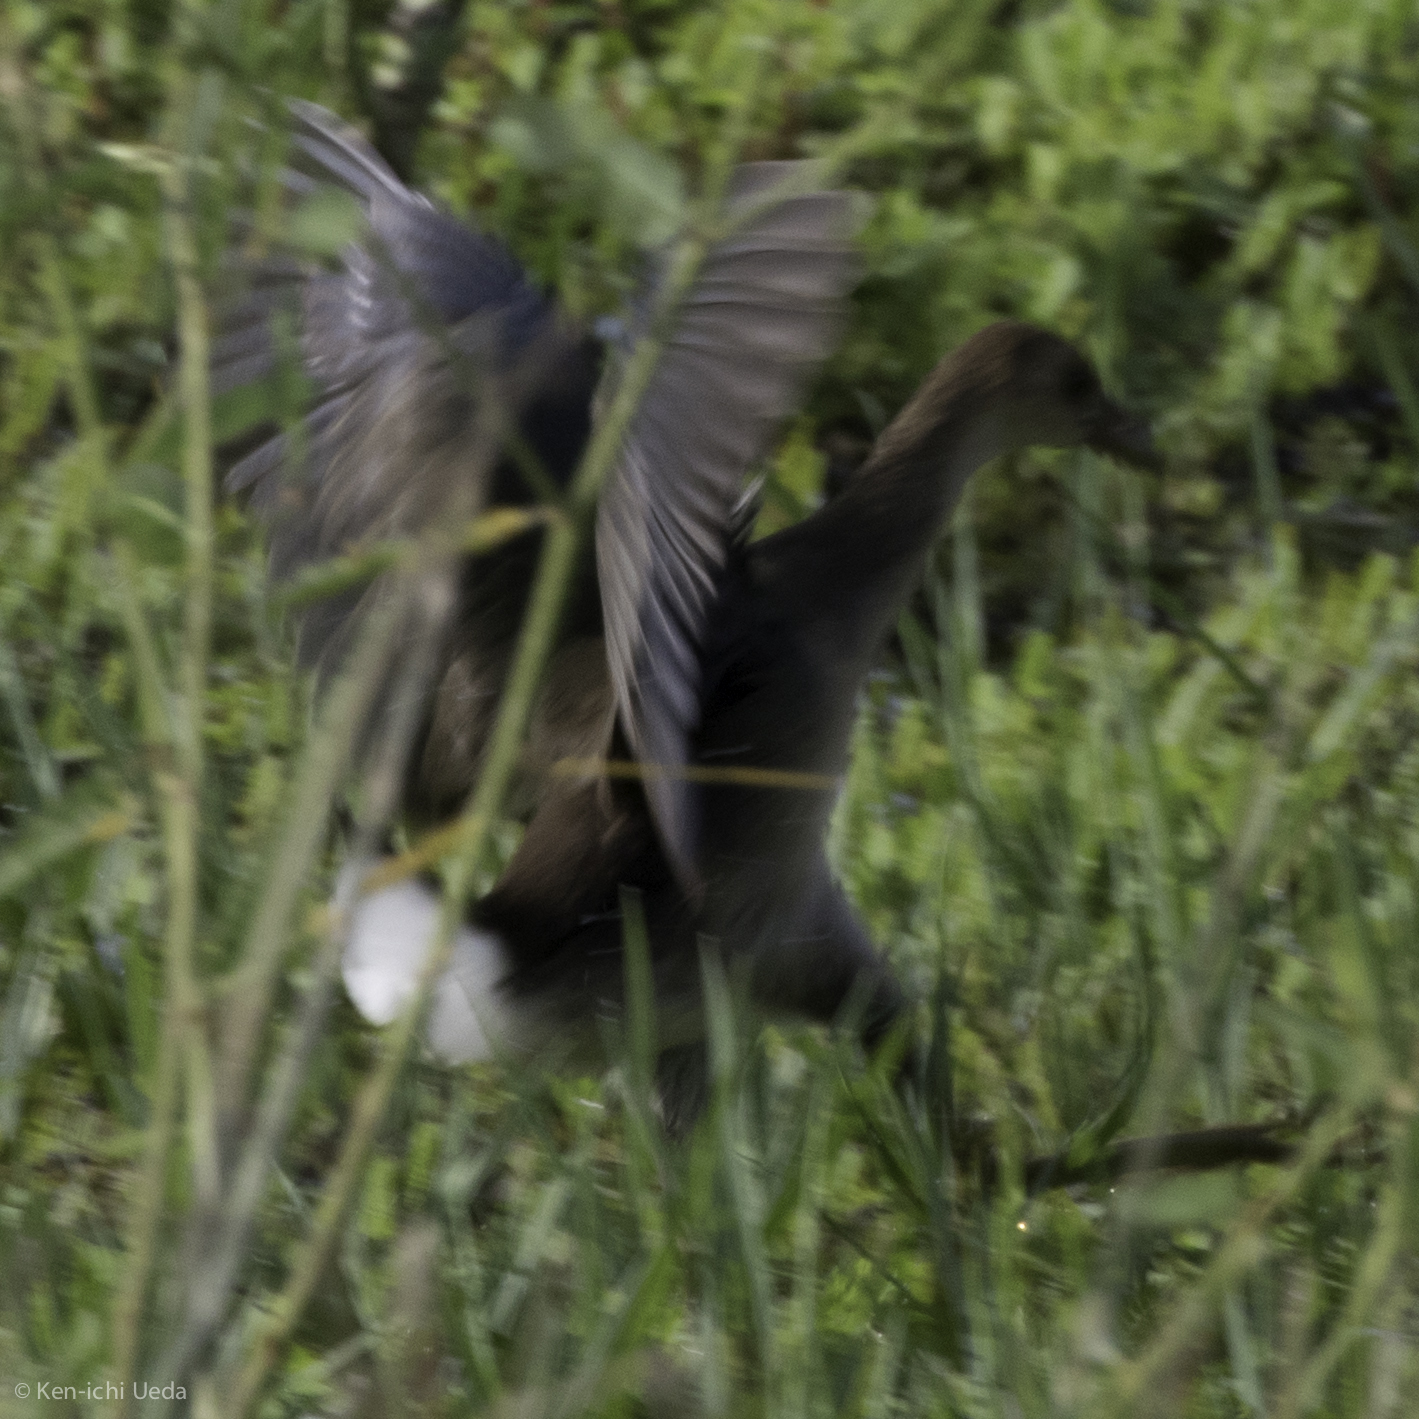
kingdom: Animalia
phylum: Chordata
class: Aves
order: Gruiformes
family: Rallidae
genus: Porphyrio
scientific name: Porphyrio martinica
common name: Purple gallinule
